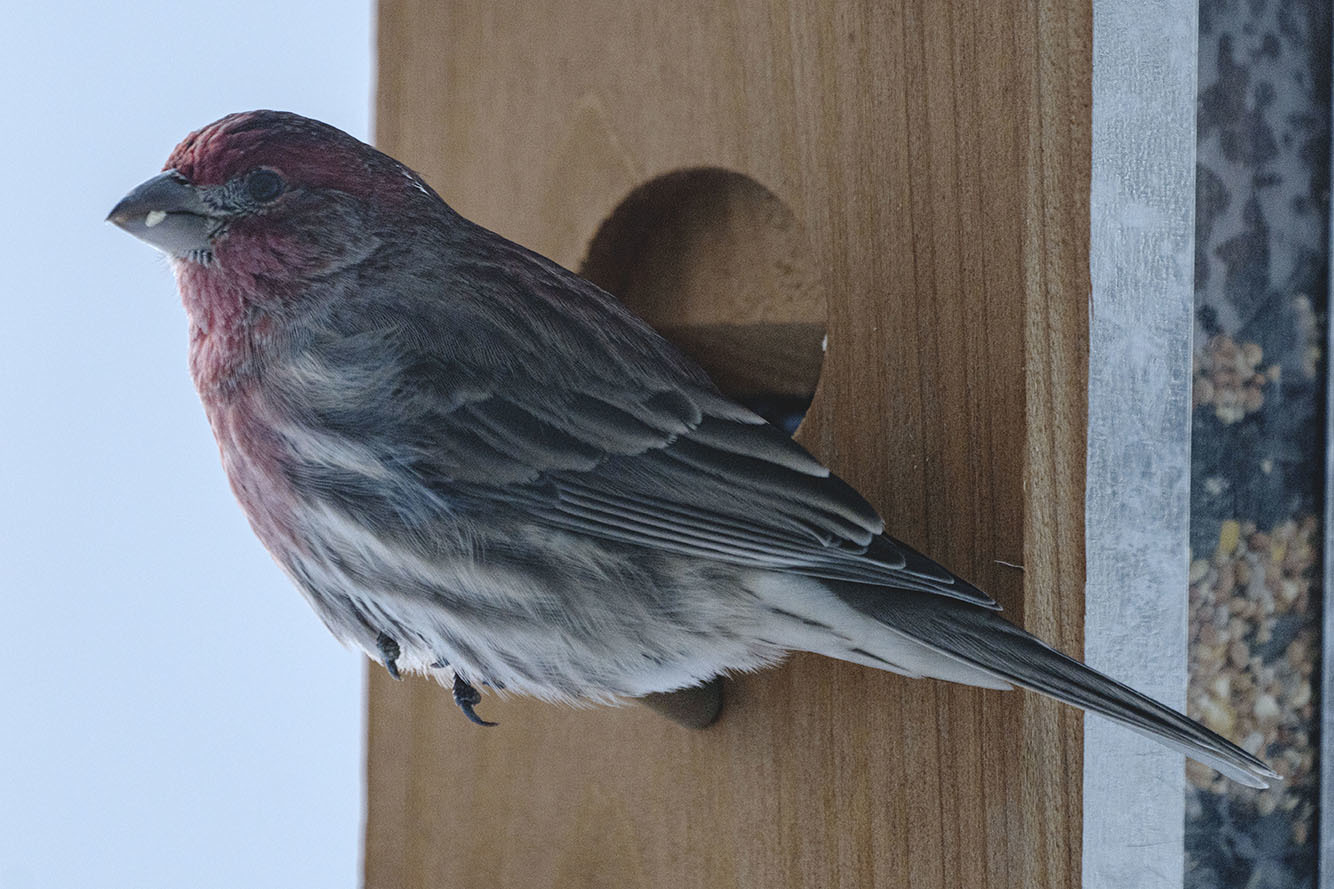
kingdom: Animalia
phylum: Chordata
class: Aves
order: Passeriformes
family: Fringillidae
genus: Haemorhous
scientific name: Haemorhous mexicanus
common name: House finch
